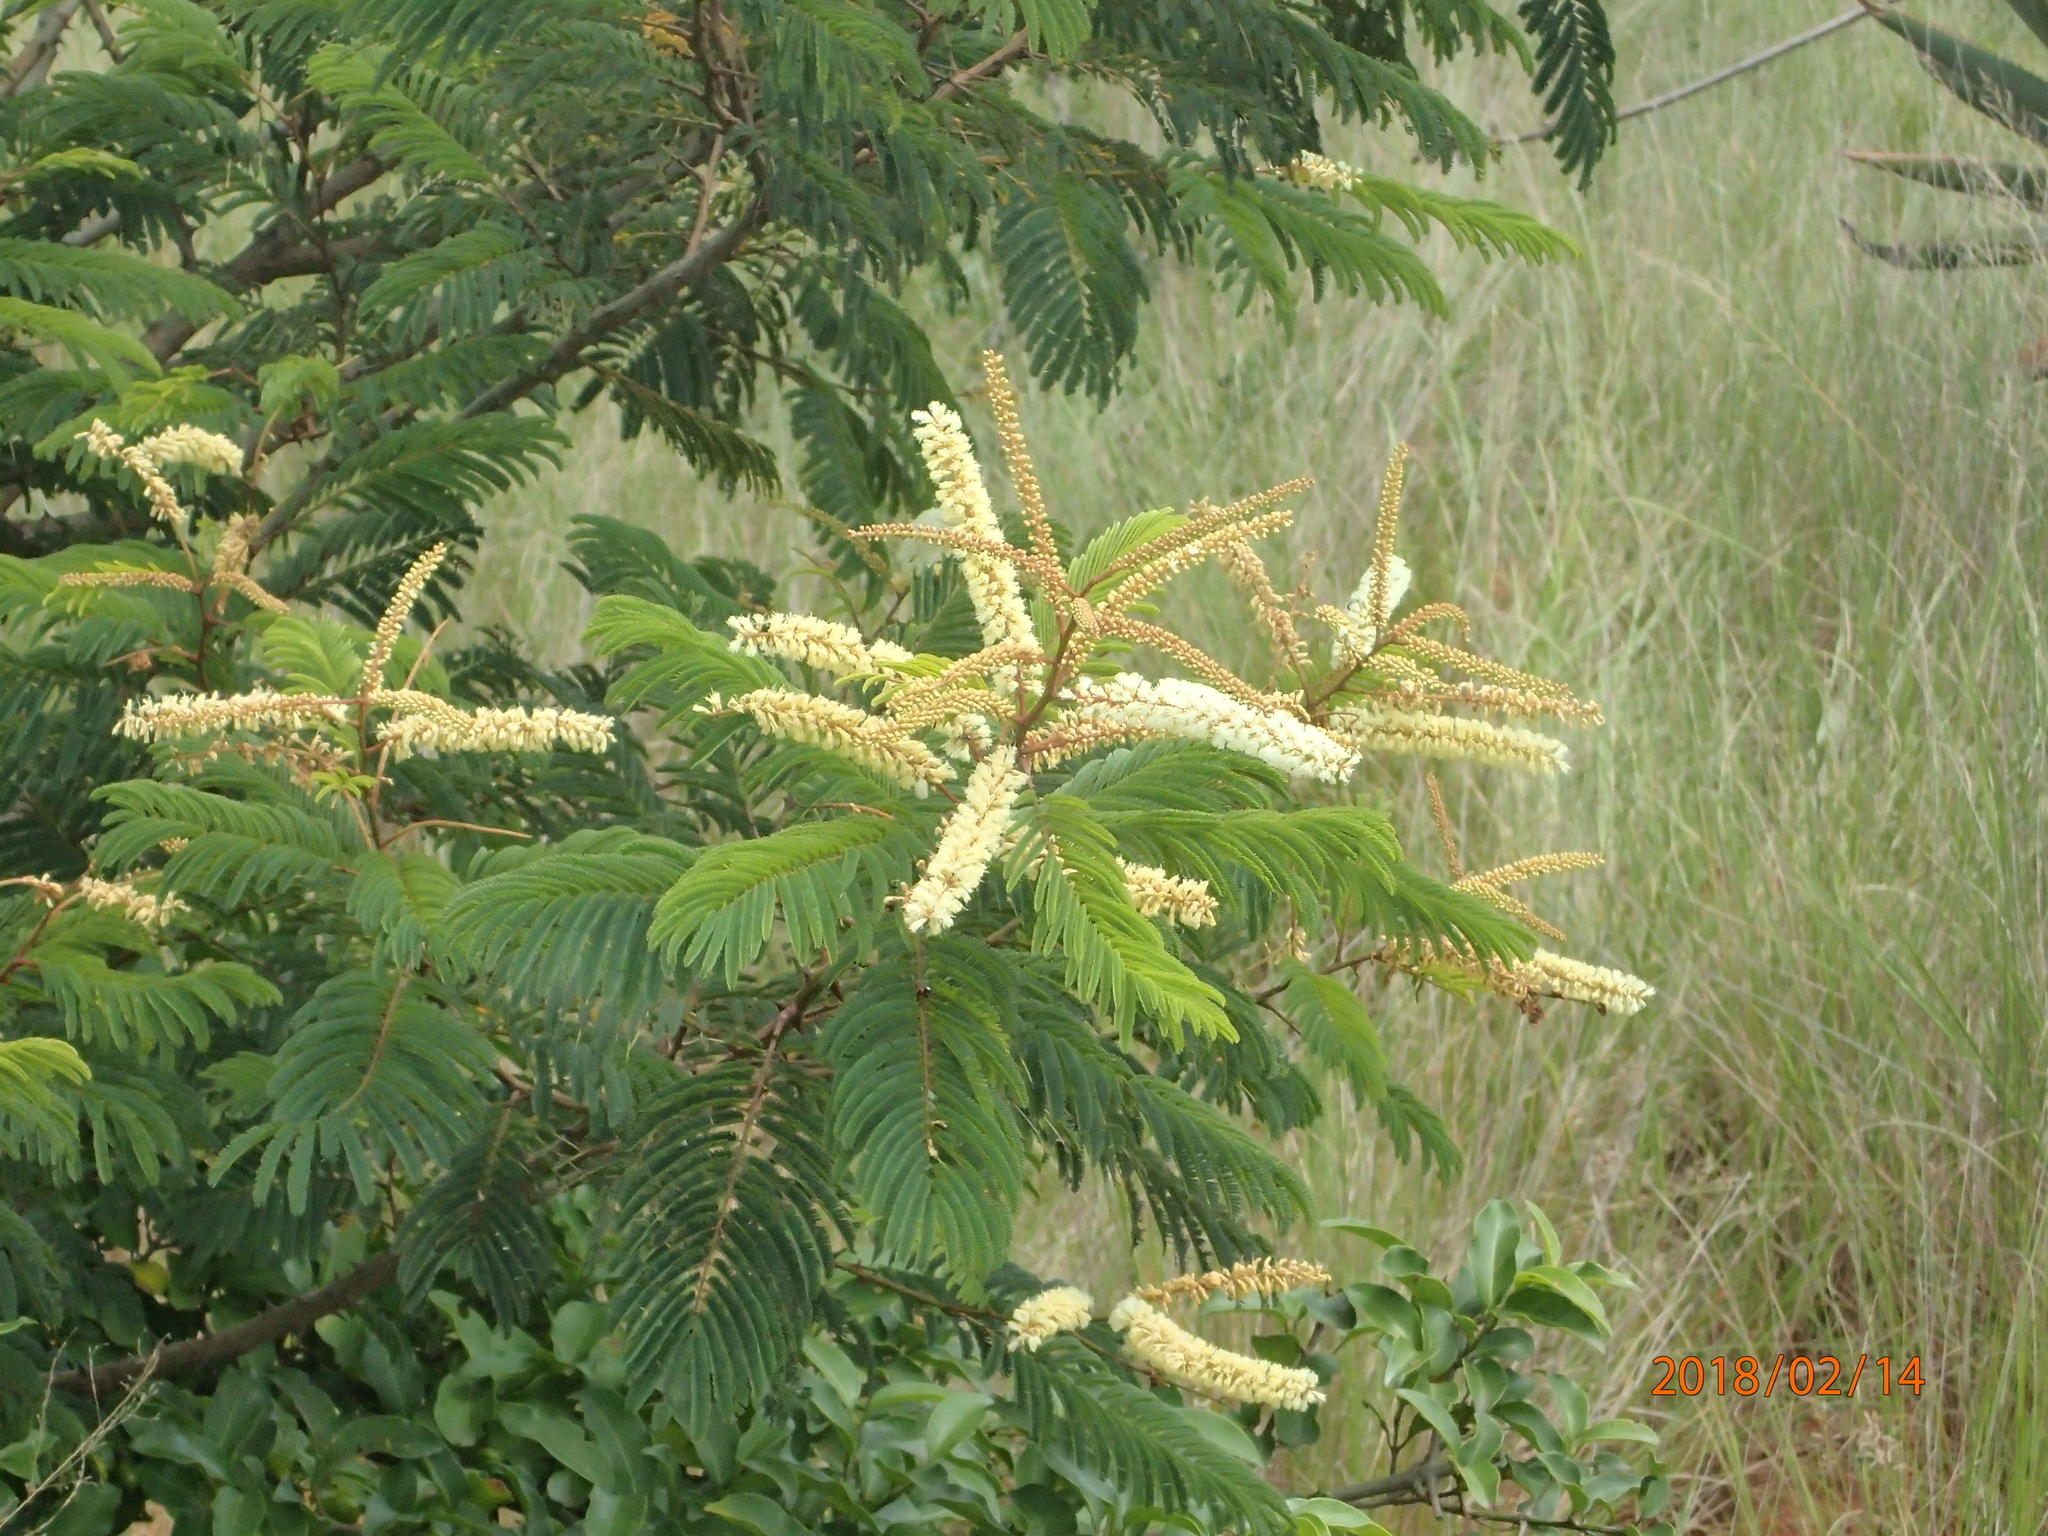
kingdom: Plantae
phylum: Tracheophyta
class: Magnoliopsida
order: Fabales
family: Fabaceae
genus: Senegalia
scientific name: Senegalia ataxacantha
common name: Flame acacia
